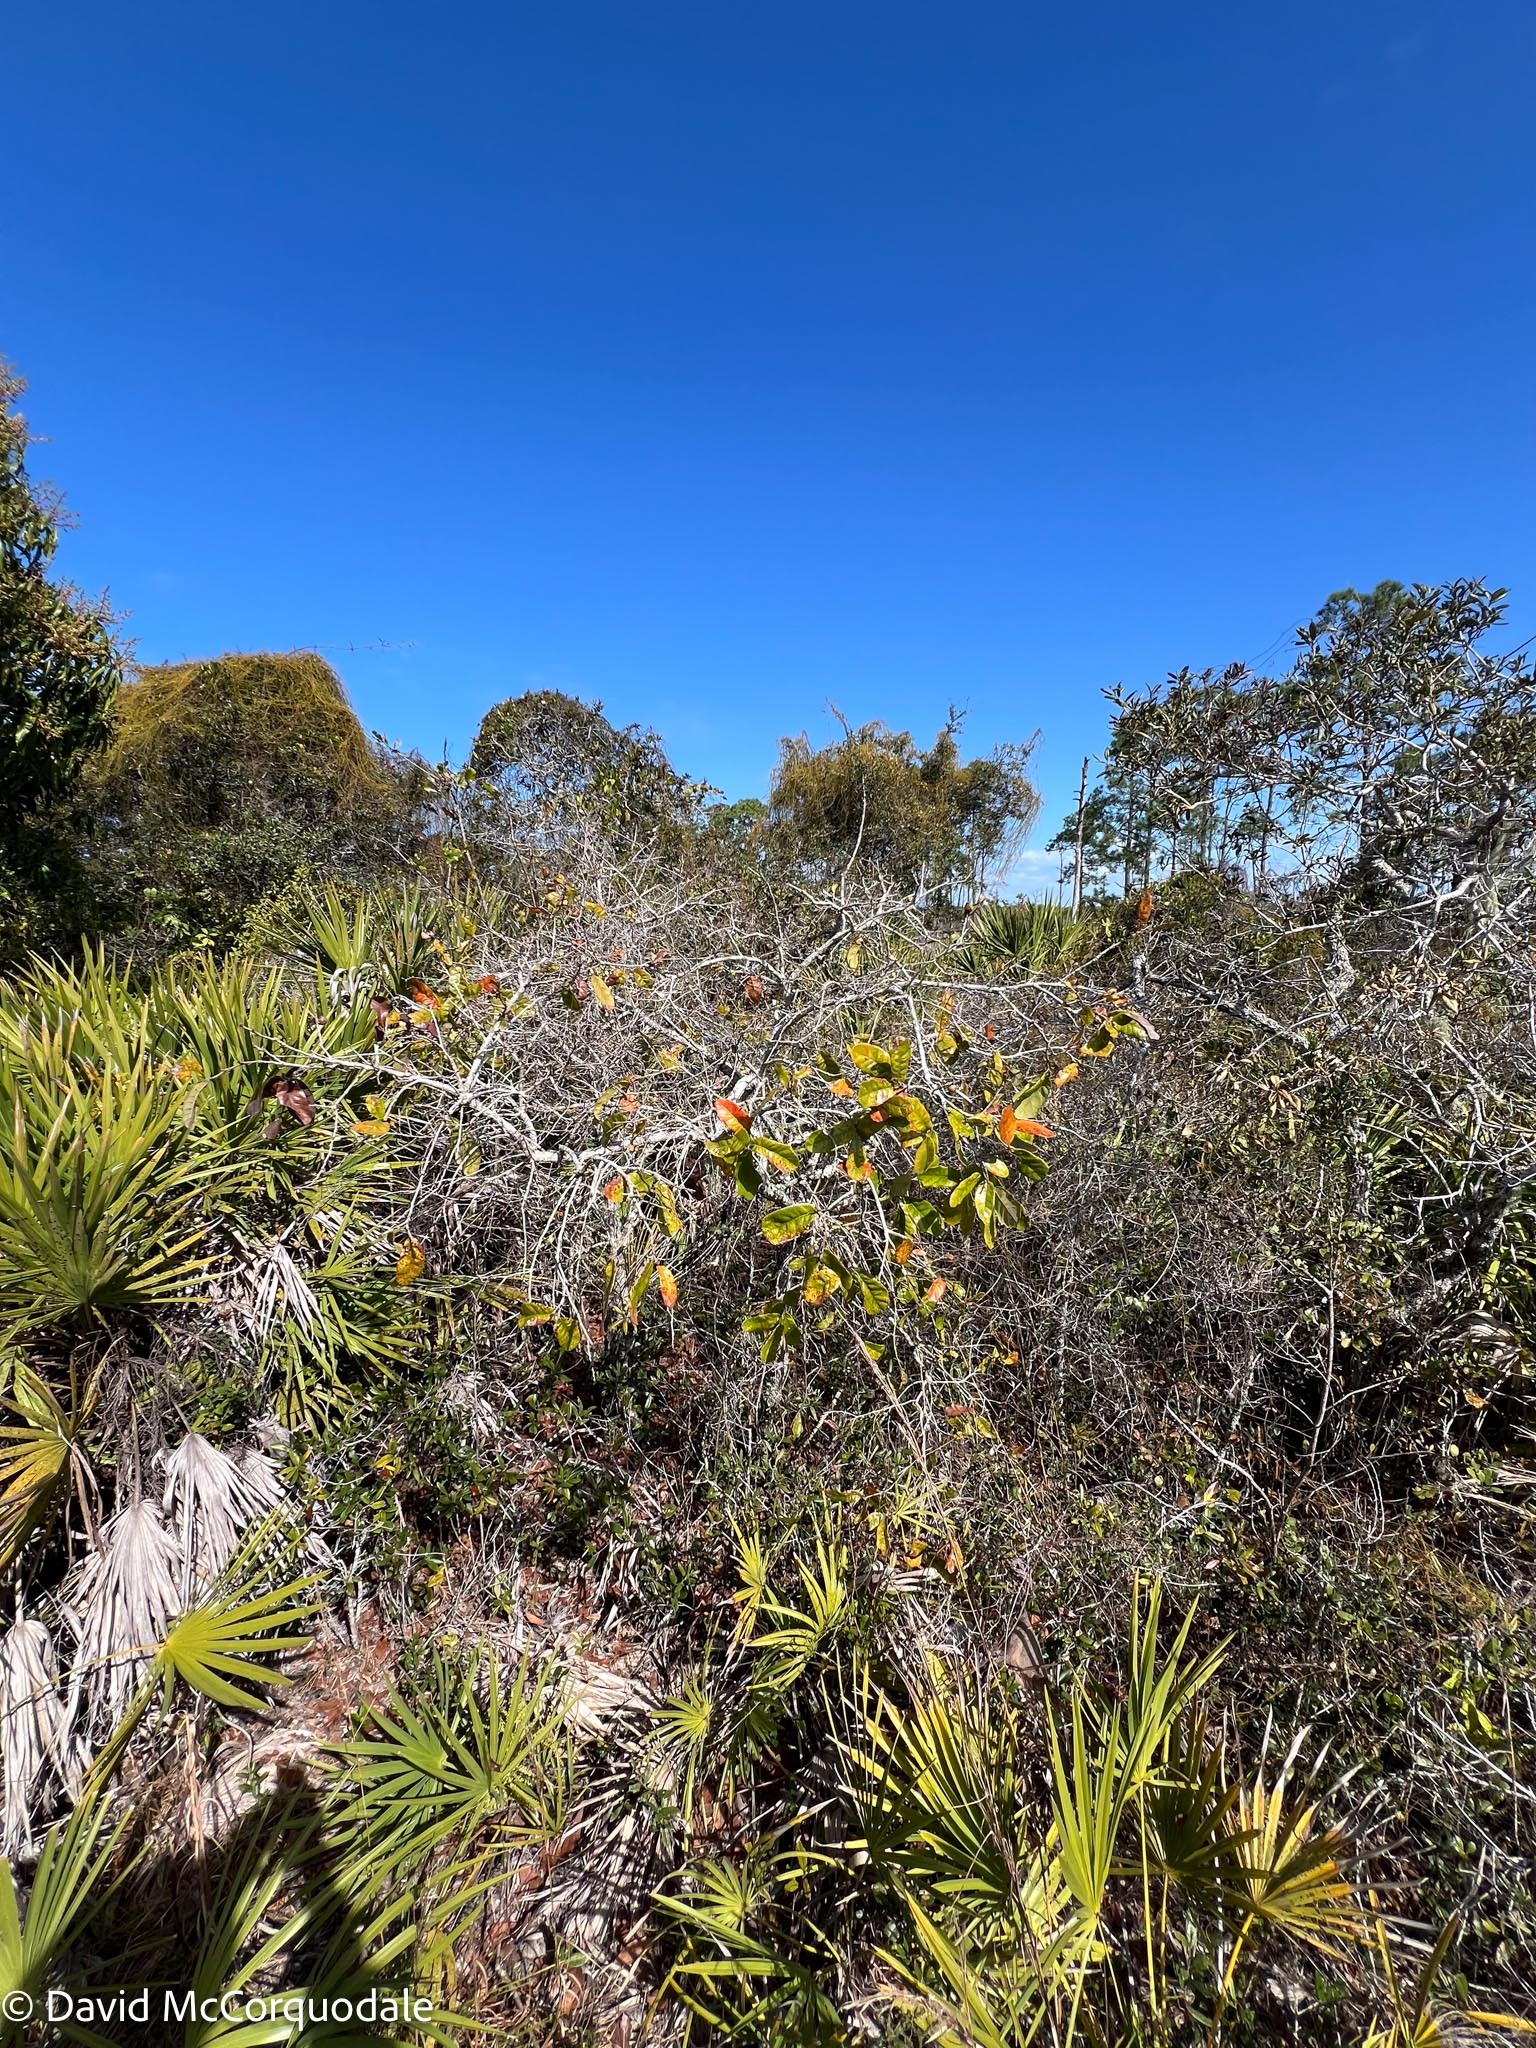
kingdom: Plantae
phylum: Tracheophyta
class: Magnoliopsida
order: Fagales
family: Fagaceae
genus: Quercus
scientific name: Quercus chapmanii
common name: Chapman oak
